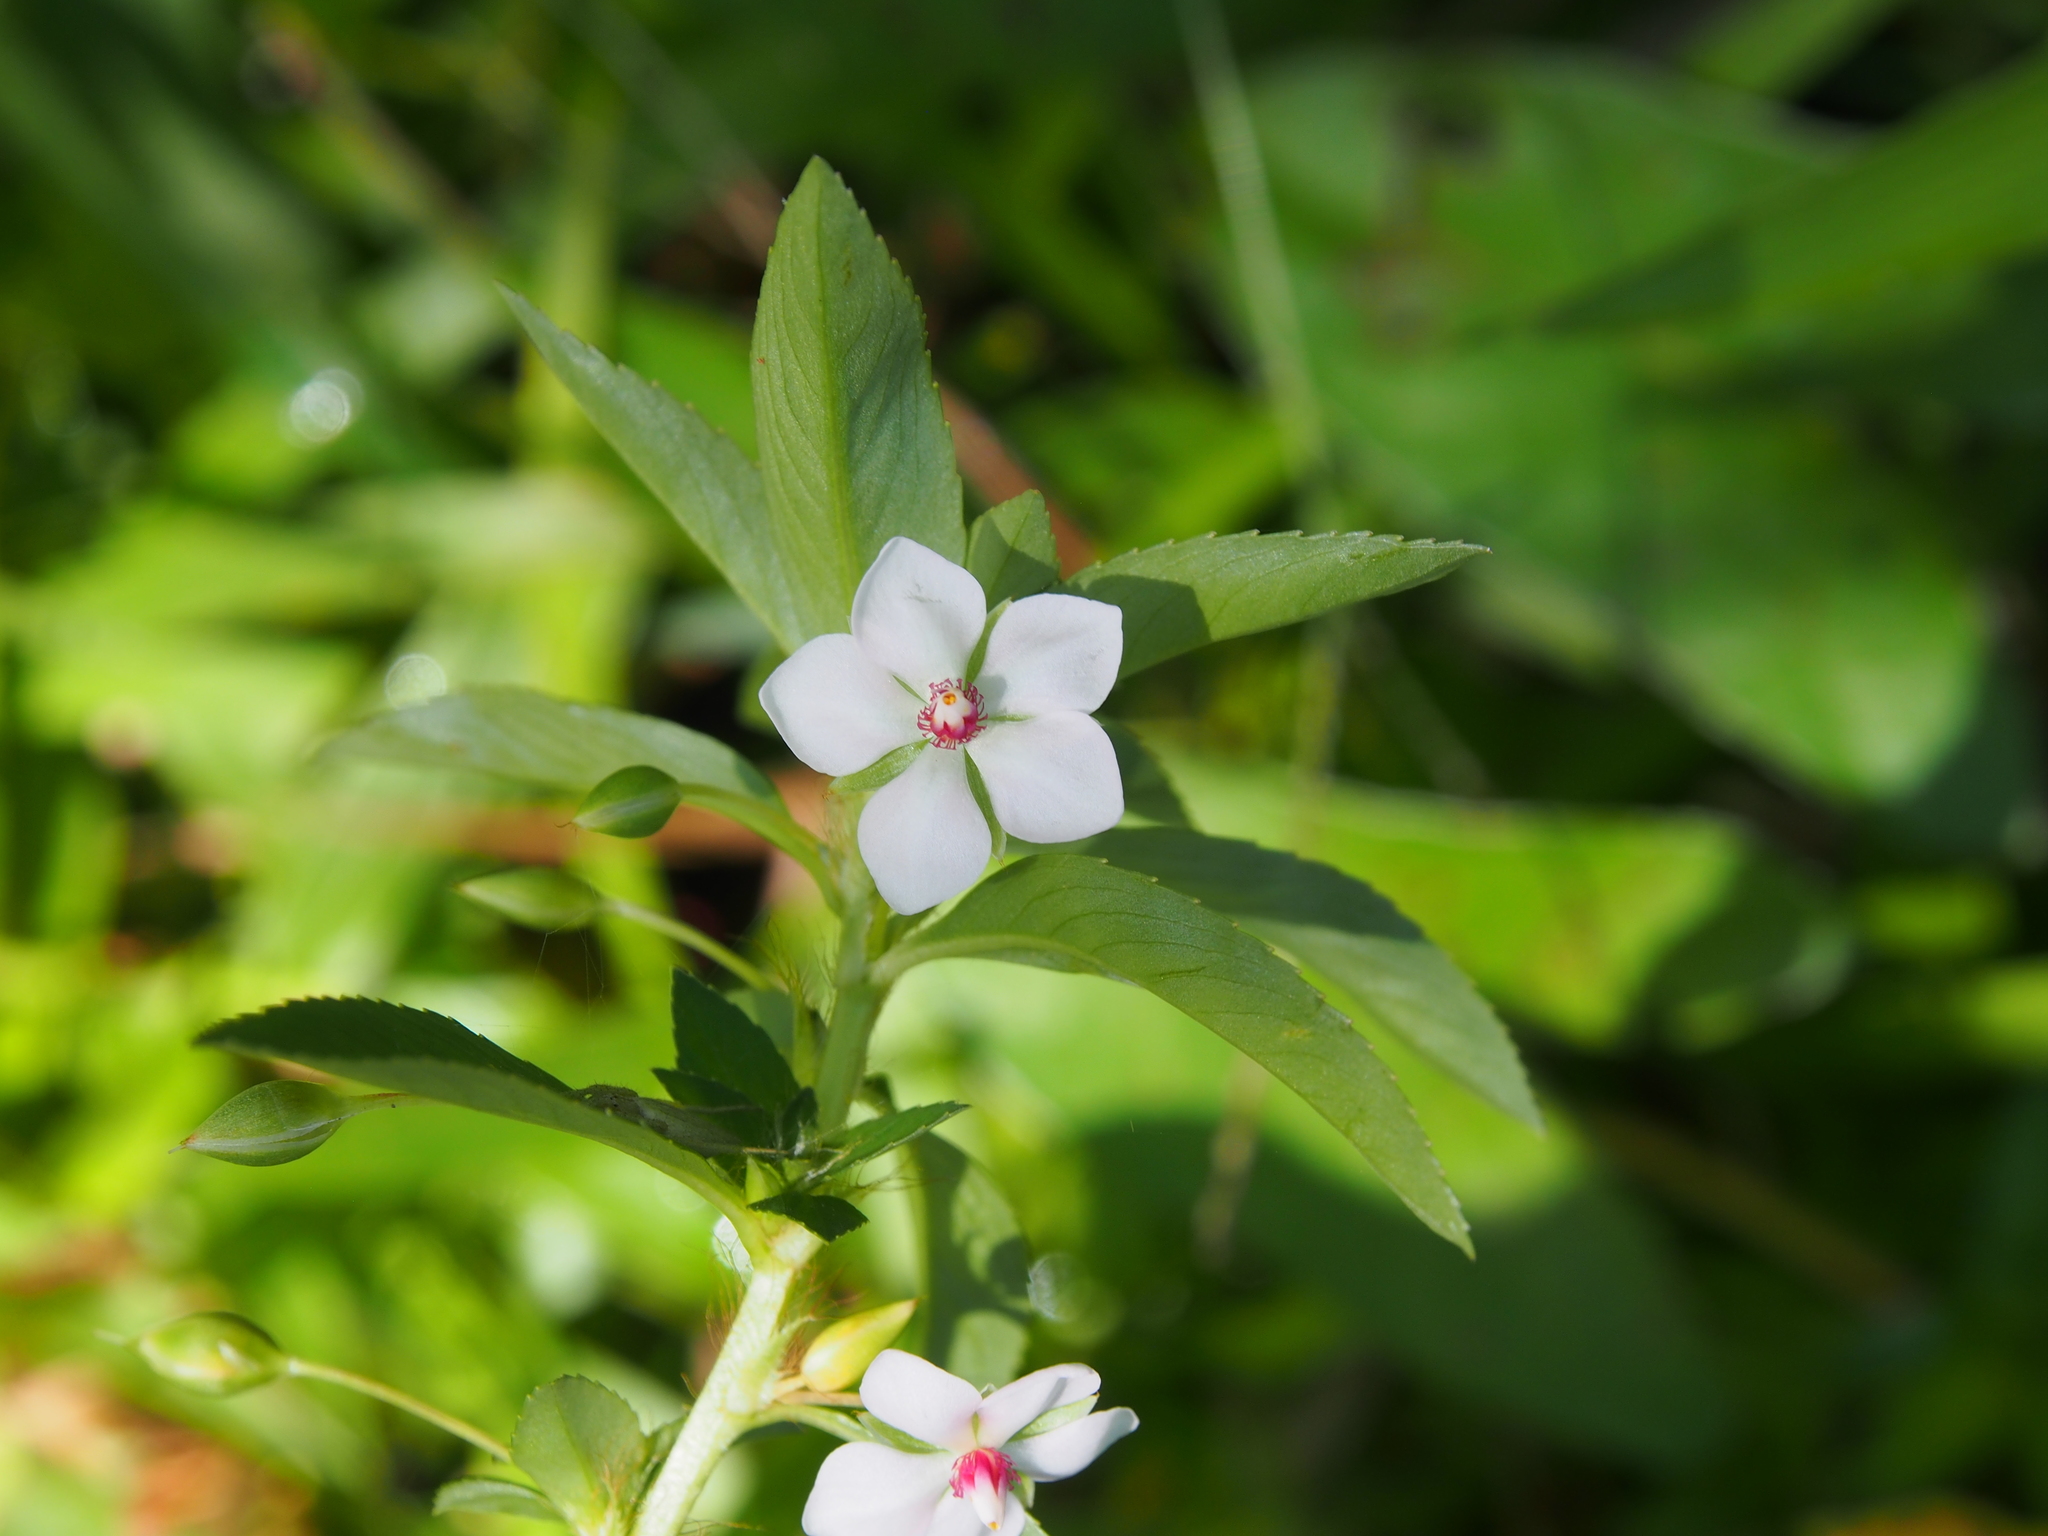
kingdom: Plantae
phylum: Tracheophyta
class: Magnoliopsida
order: Malpighiales
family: Ochnaceae
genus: Sauvagesia
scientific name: Sauvagesia erecta
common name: Creole tea
